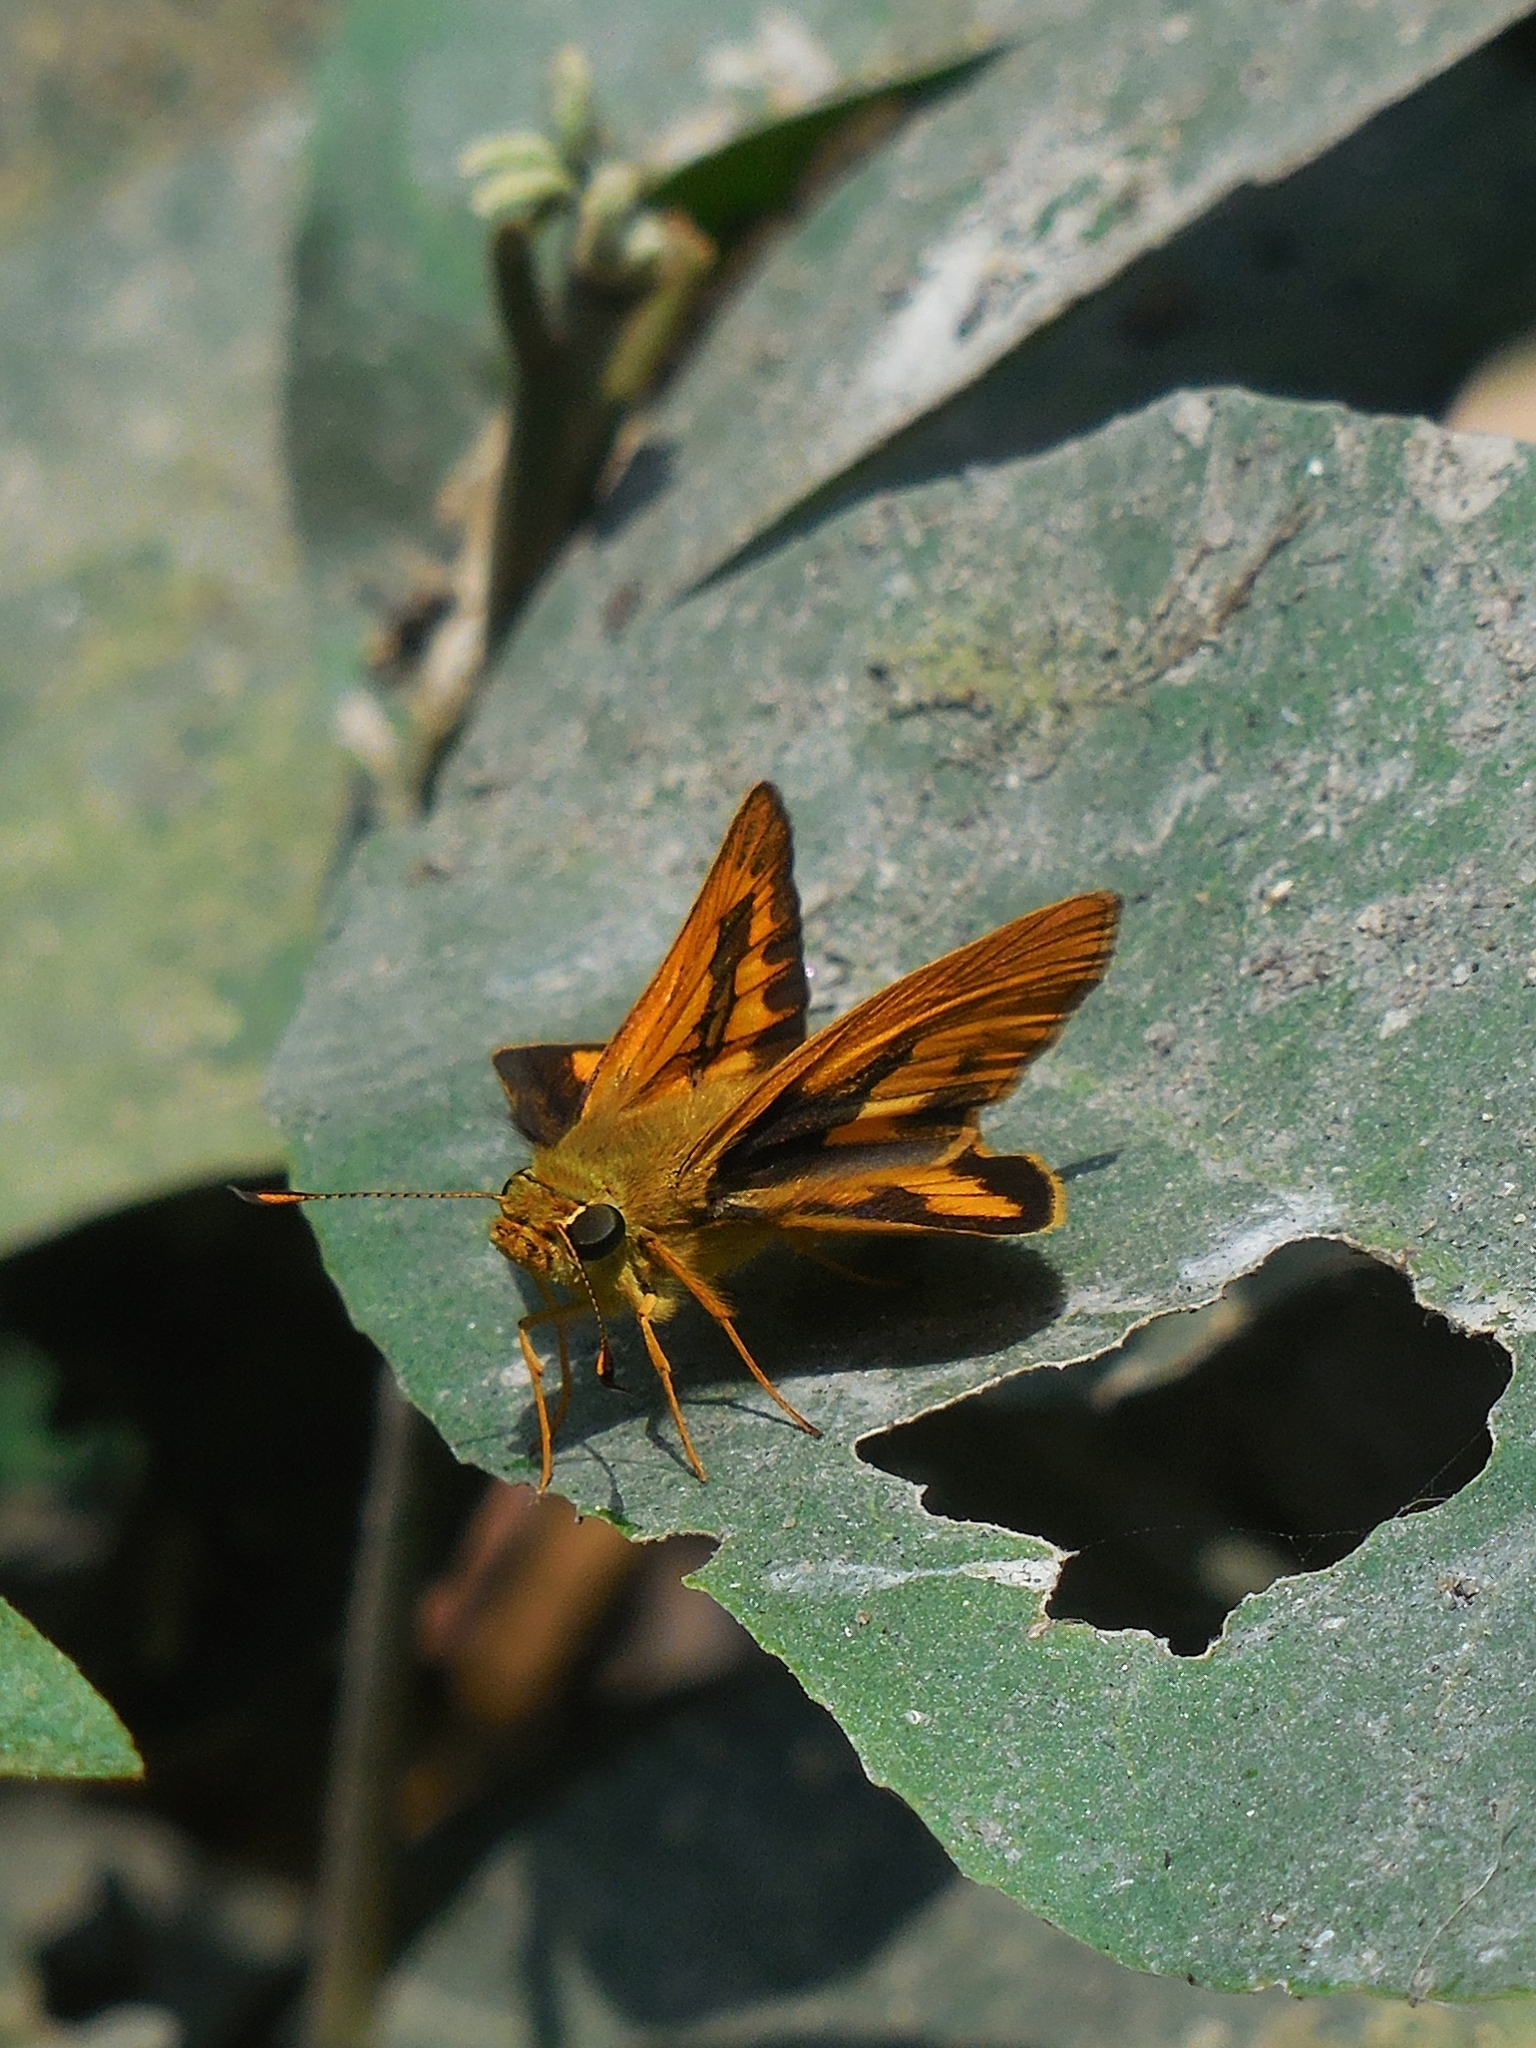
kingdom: Animalia
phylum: Arthropoda
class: Insecta
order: Lepidoptera
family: Hesperiidae
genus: Telicota
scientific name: Telicota colon
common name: Pale palm dart
